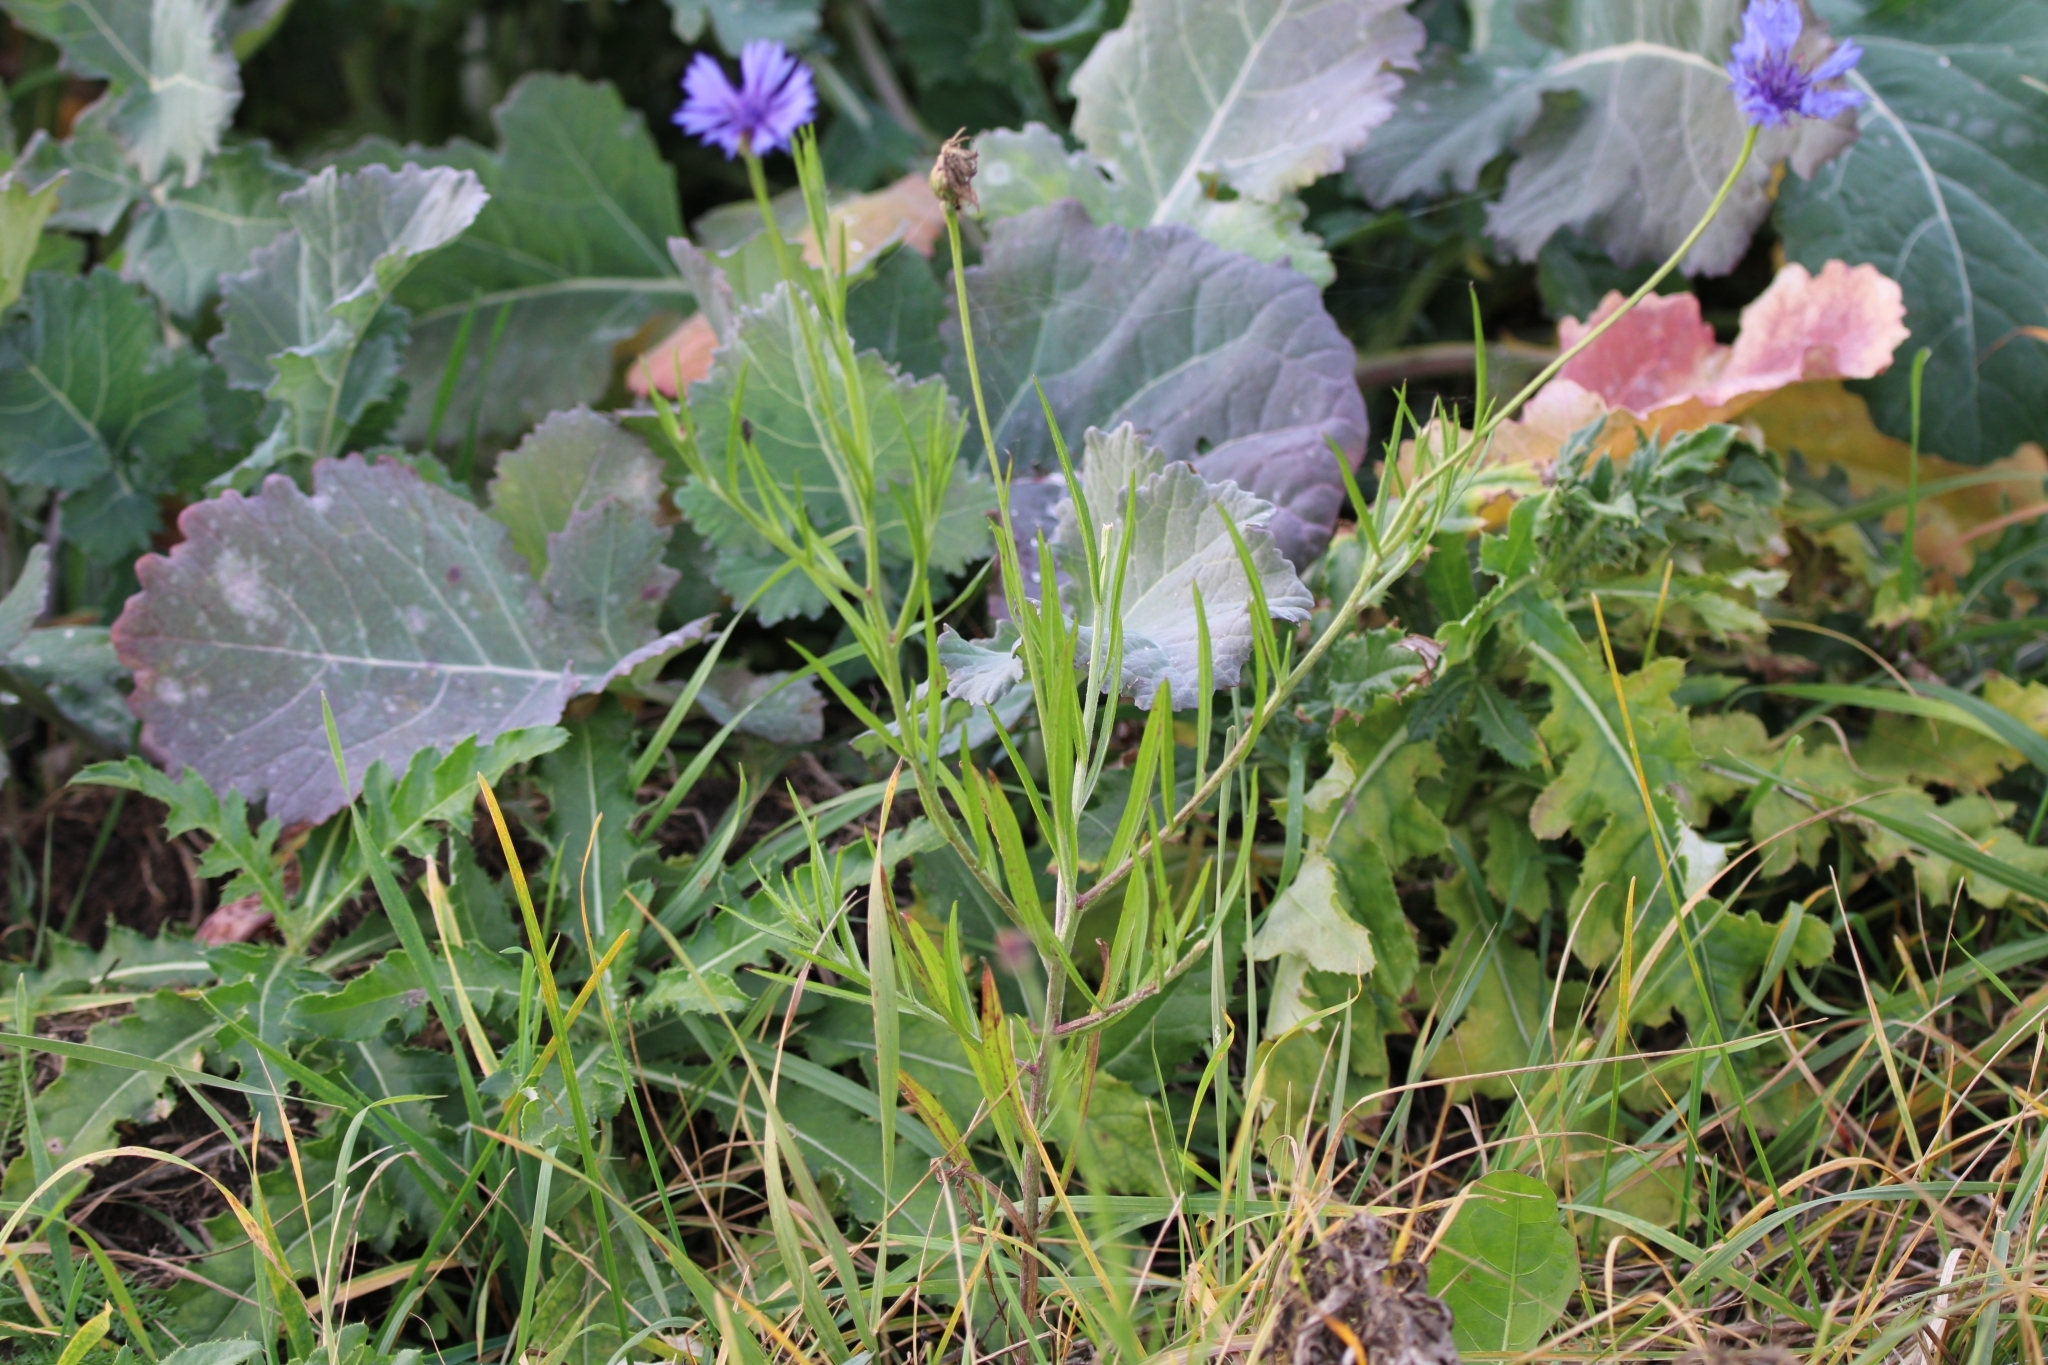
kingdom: Plantae
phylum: Tracheophyta
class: Magnoliopsida
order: Asterales
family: Asteraceae
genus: Centaurea
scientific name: Centaurea cyanus
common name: Cornflower
